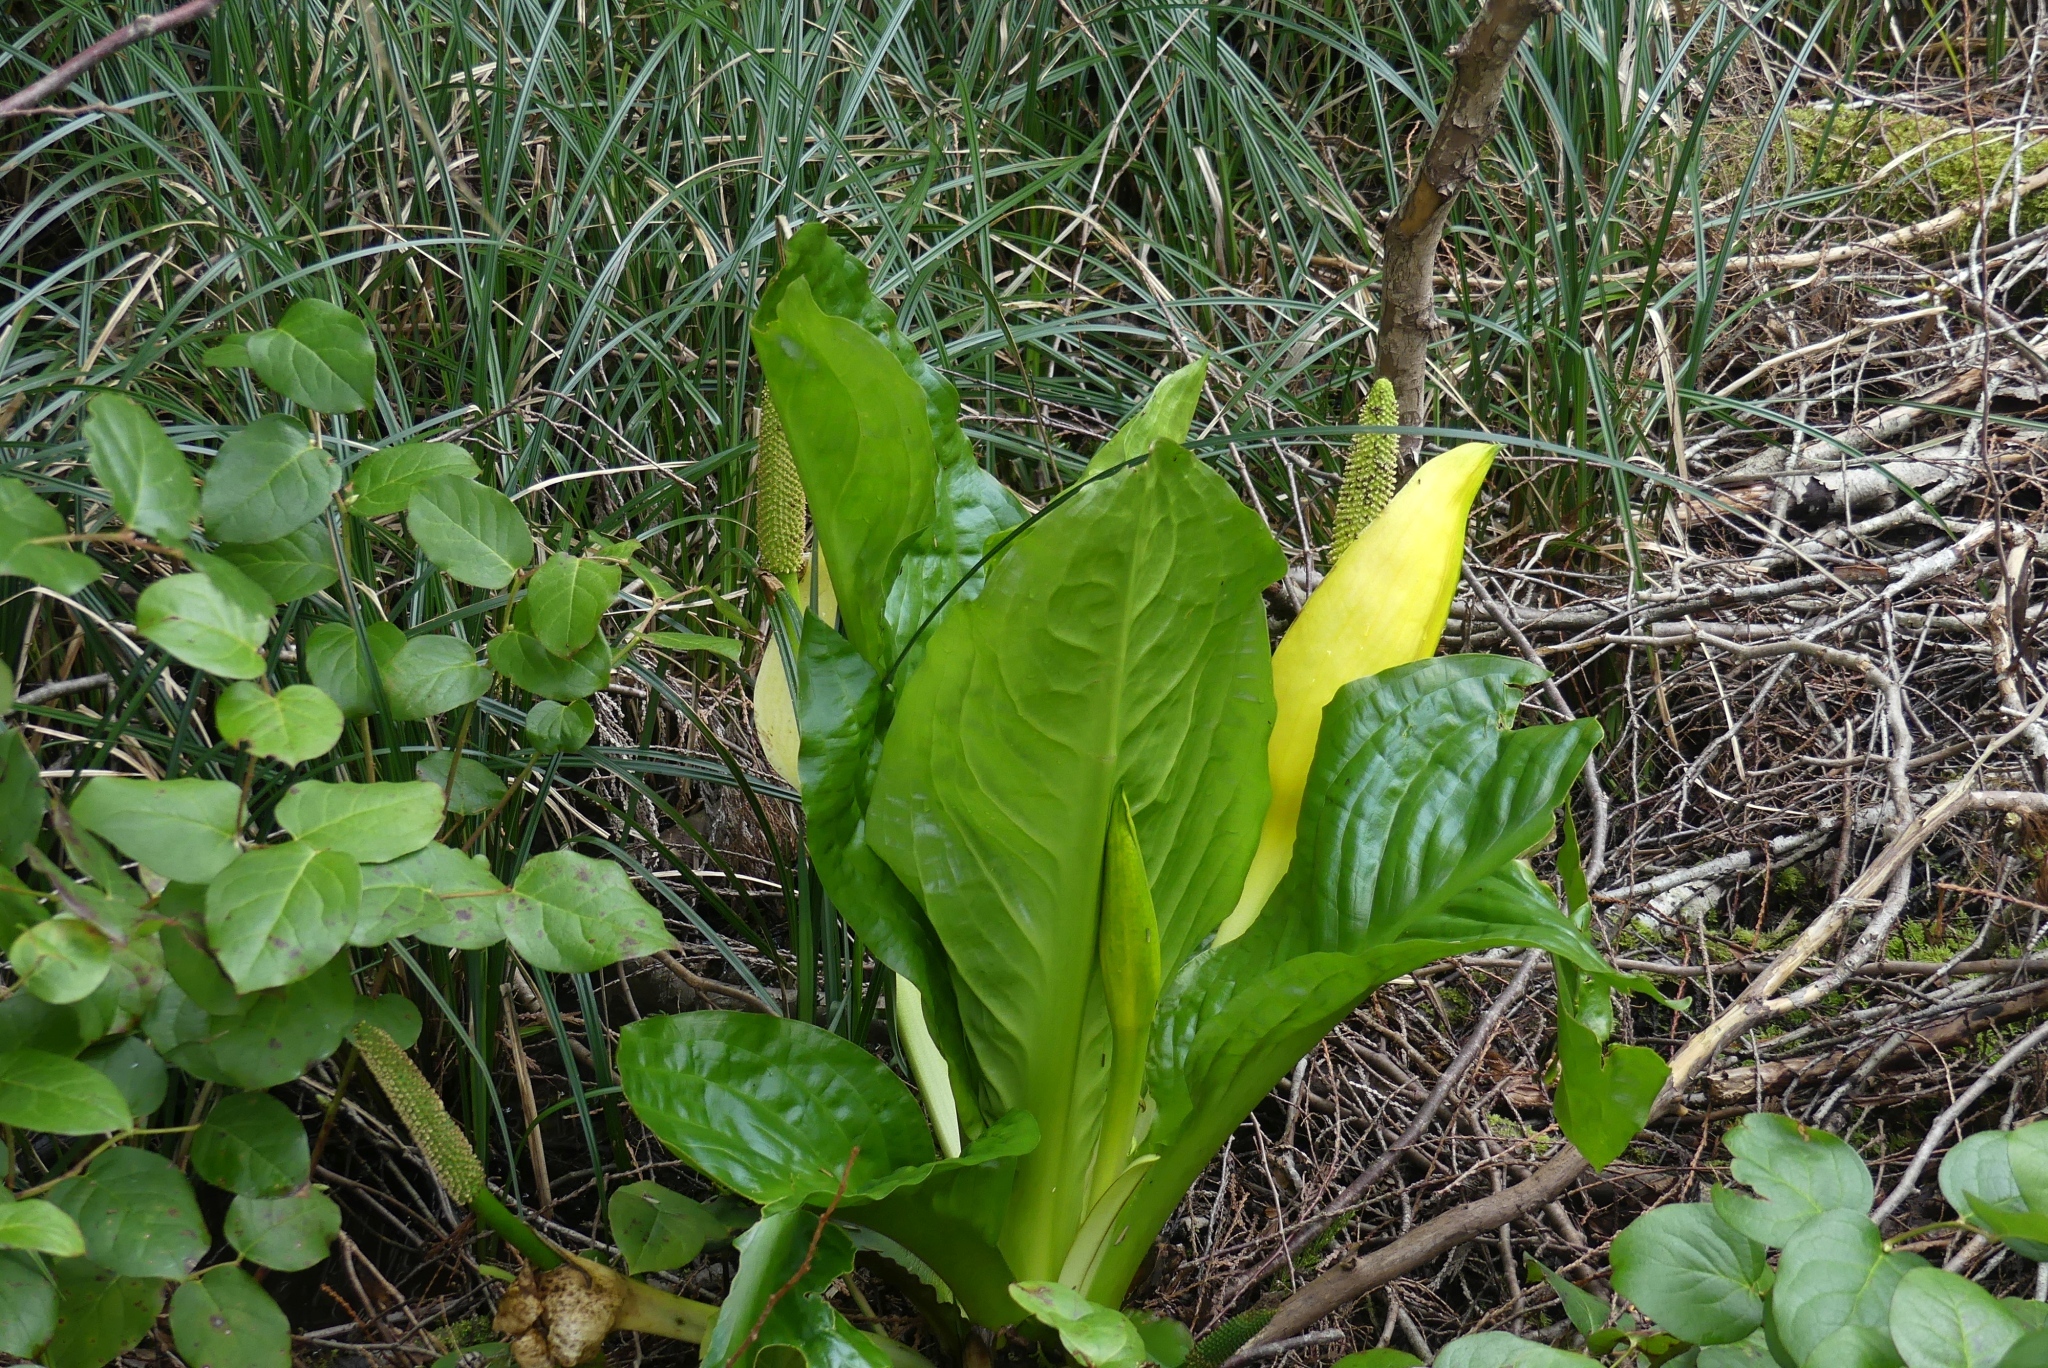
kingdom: Plantae
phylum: Tracheophyta
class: Liliopsida
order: Alismatales
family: Araceae
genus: Lysichiton
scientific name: Lysichiton americanus
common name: American skunk cabbage
